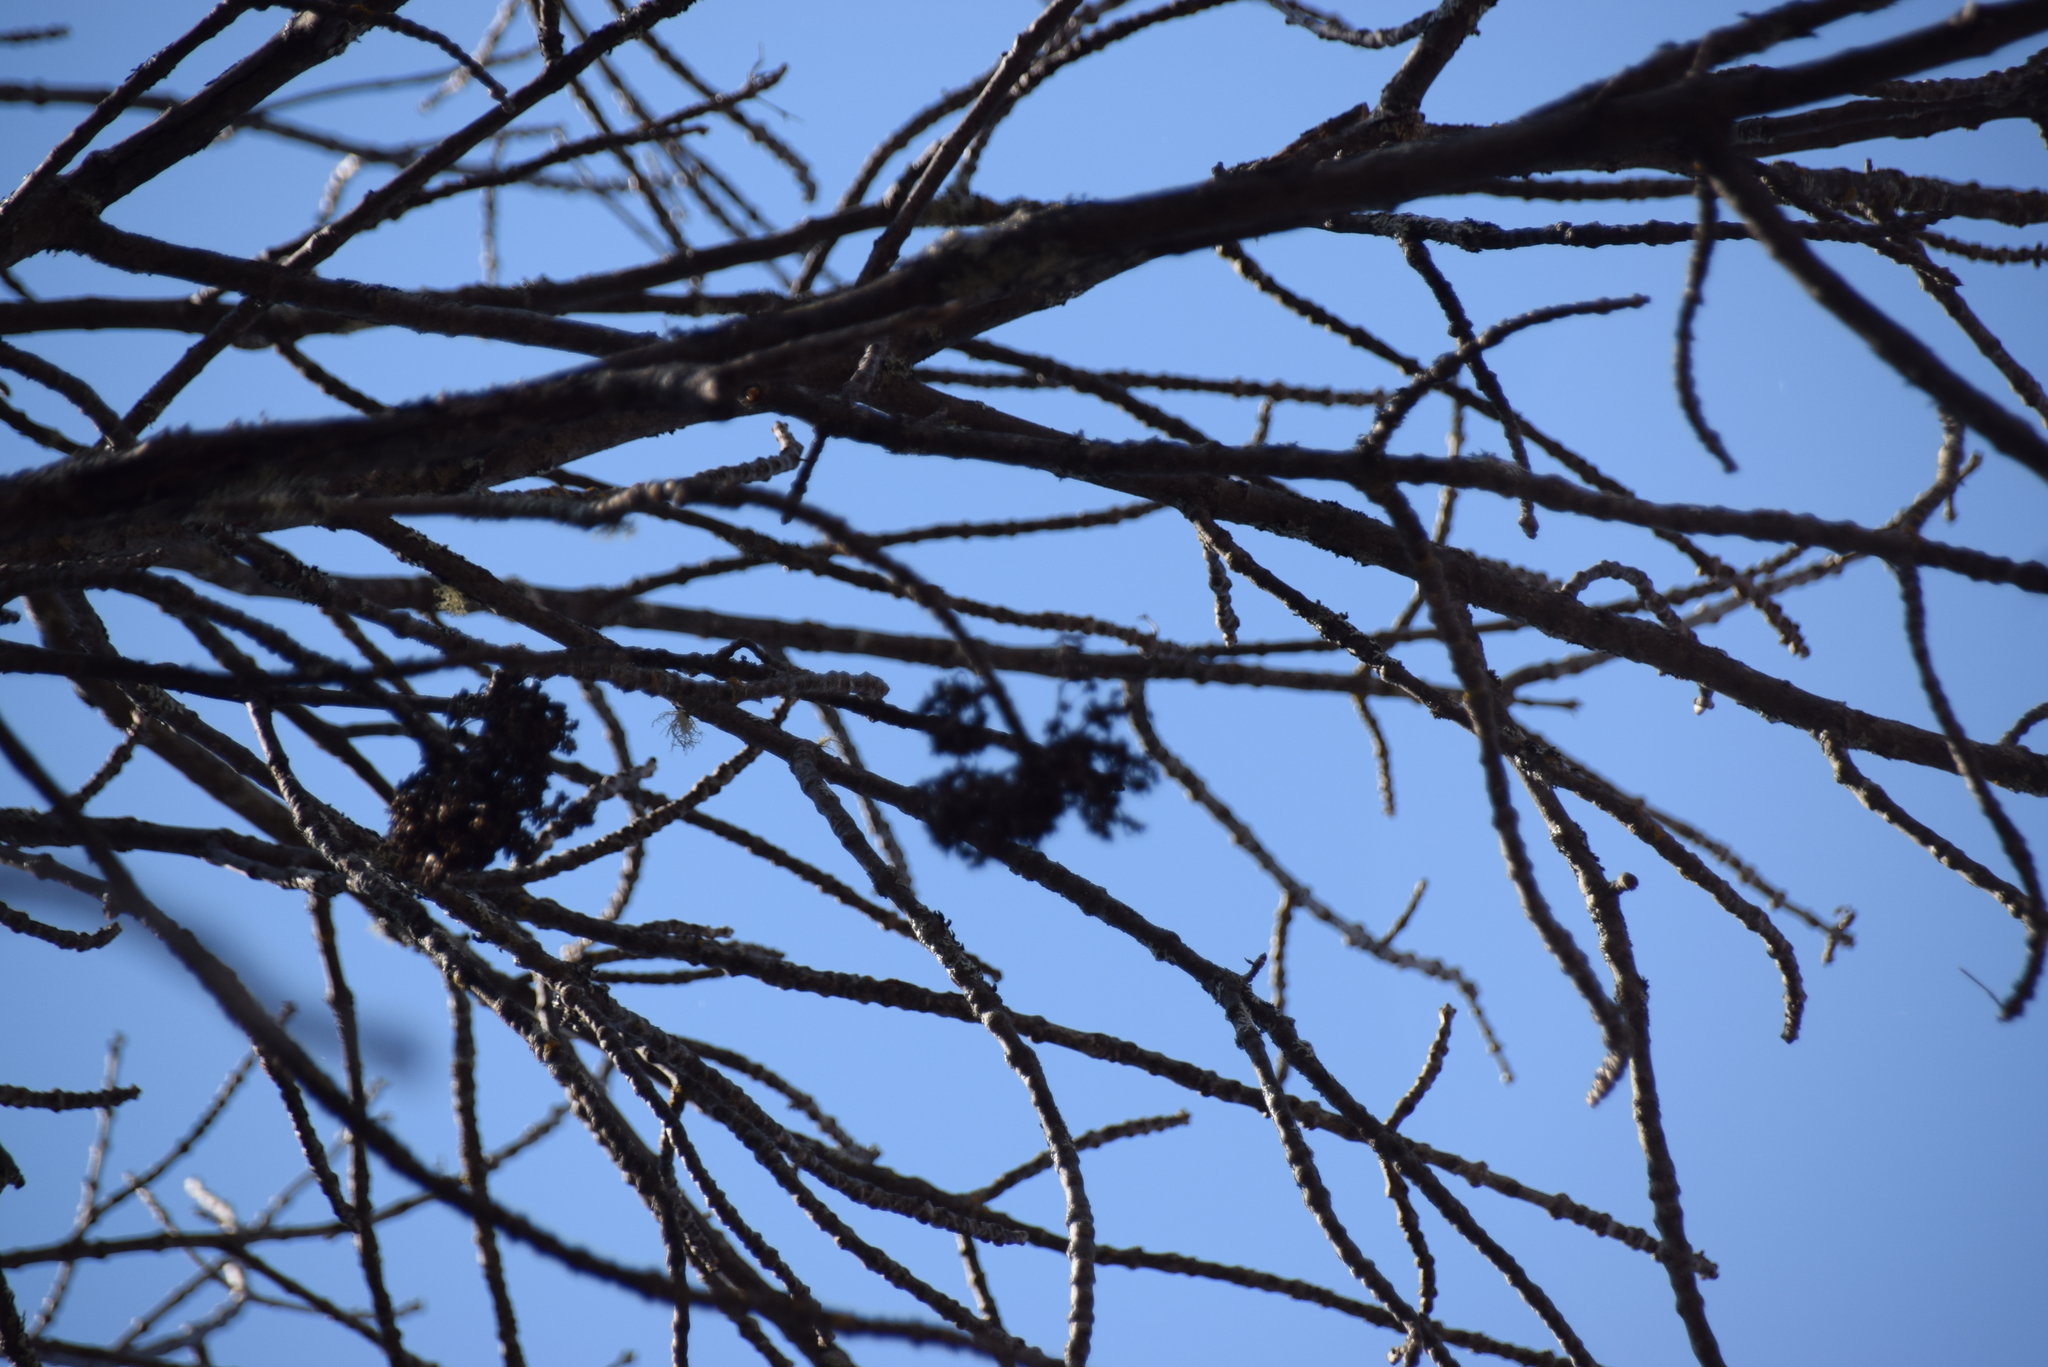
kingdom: Plantae
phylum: Tracheophyta
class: Magnoliopsida
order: Lamiales
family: Oleaceae
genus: Fraxinus
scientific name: Fraxinus nigra
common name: Black ash
